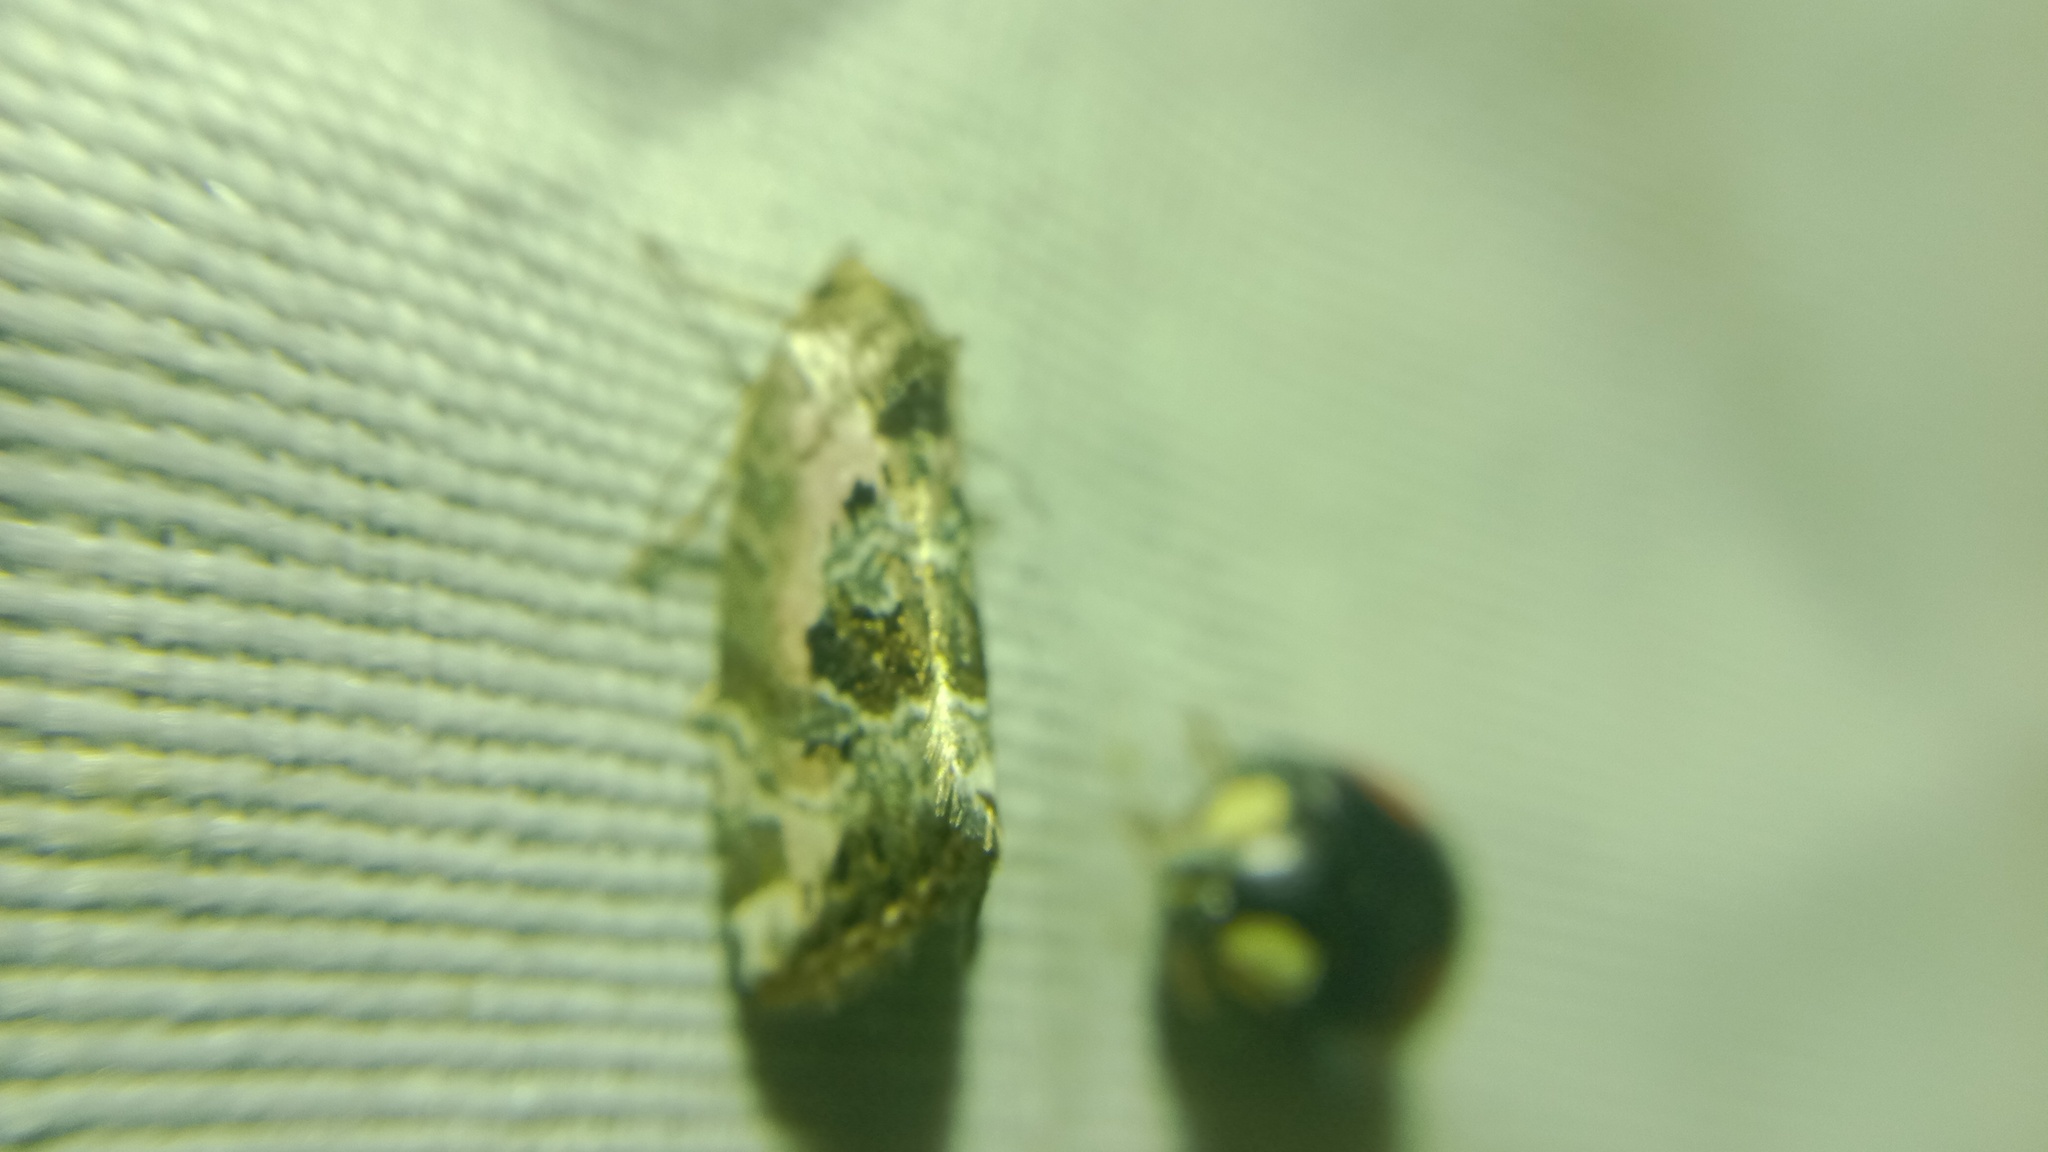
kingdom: Animalia
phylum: Arthropoda
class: Insecta
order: Lepidoptera
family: Noctuidae
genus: Elaphria
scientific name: Elaphria venustula
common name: Rosy marbled
